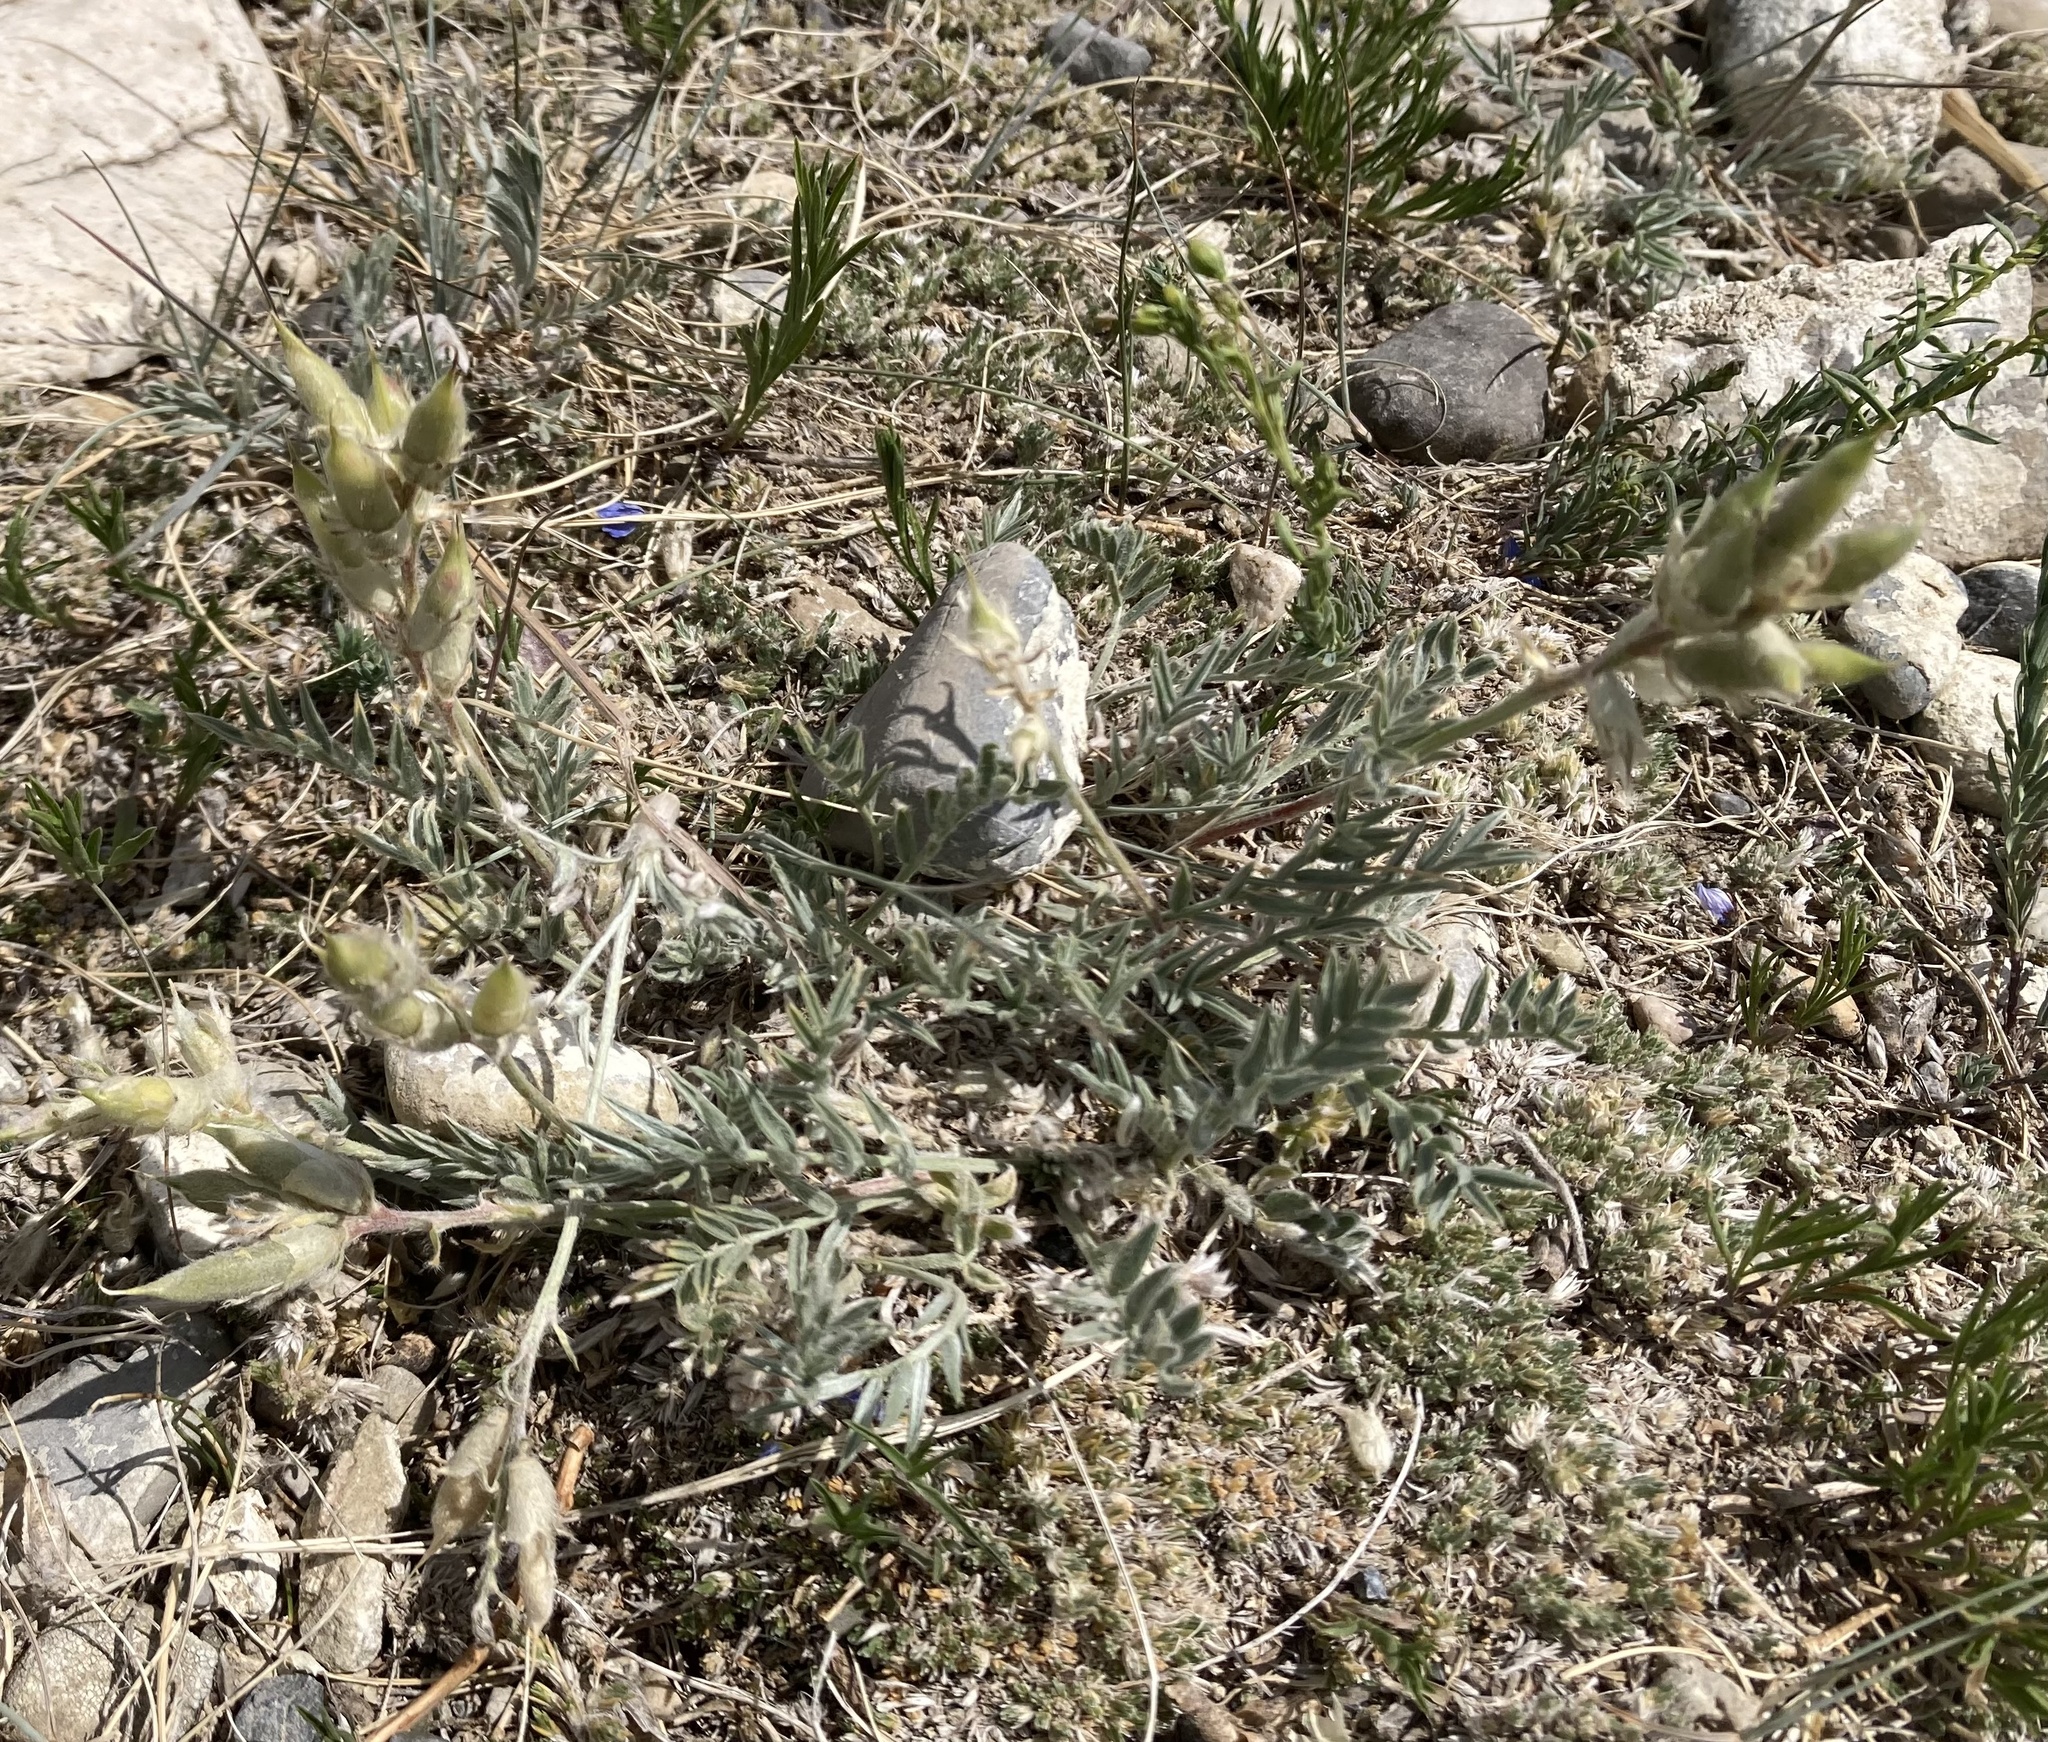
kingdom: Plantae
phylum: Tracheophyta
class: Magnoliopsida
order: Fabales
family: Fabaceae
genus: Oxytropis
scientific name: Oxytropis sericea
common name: Silky locoweed
